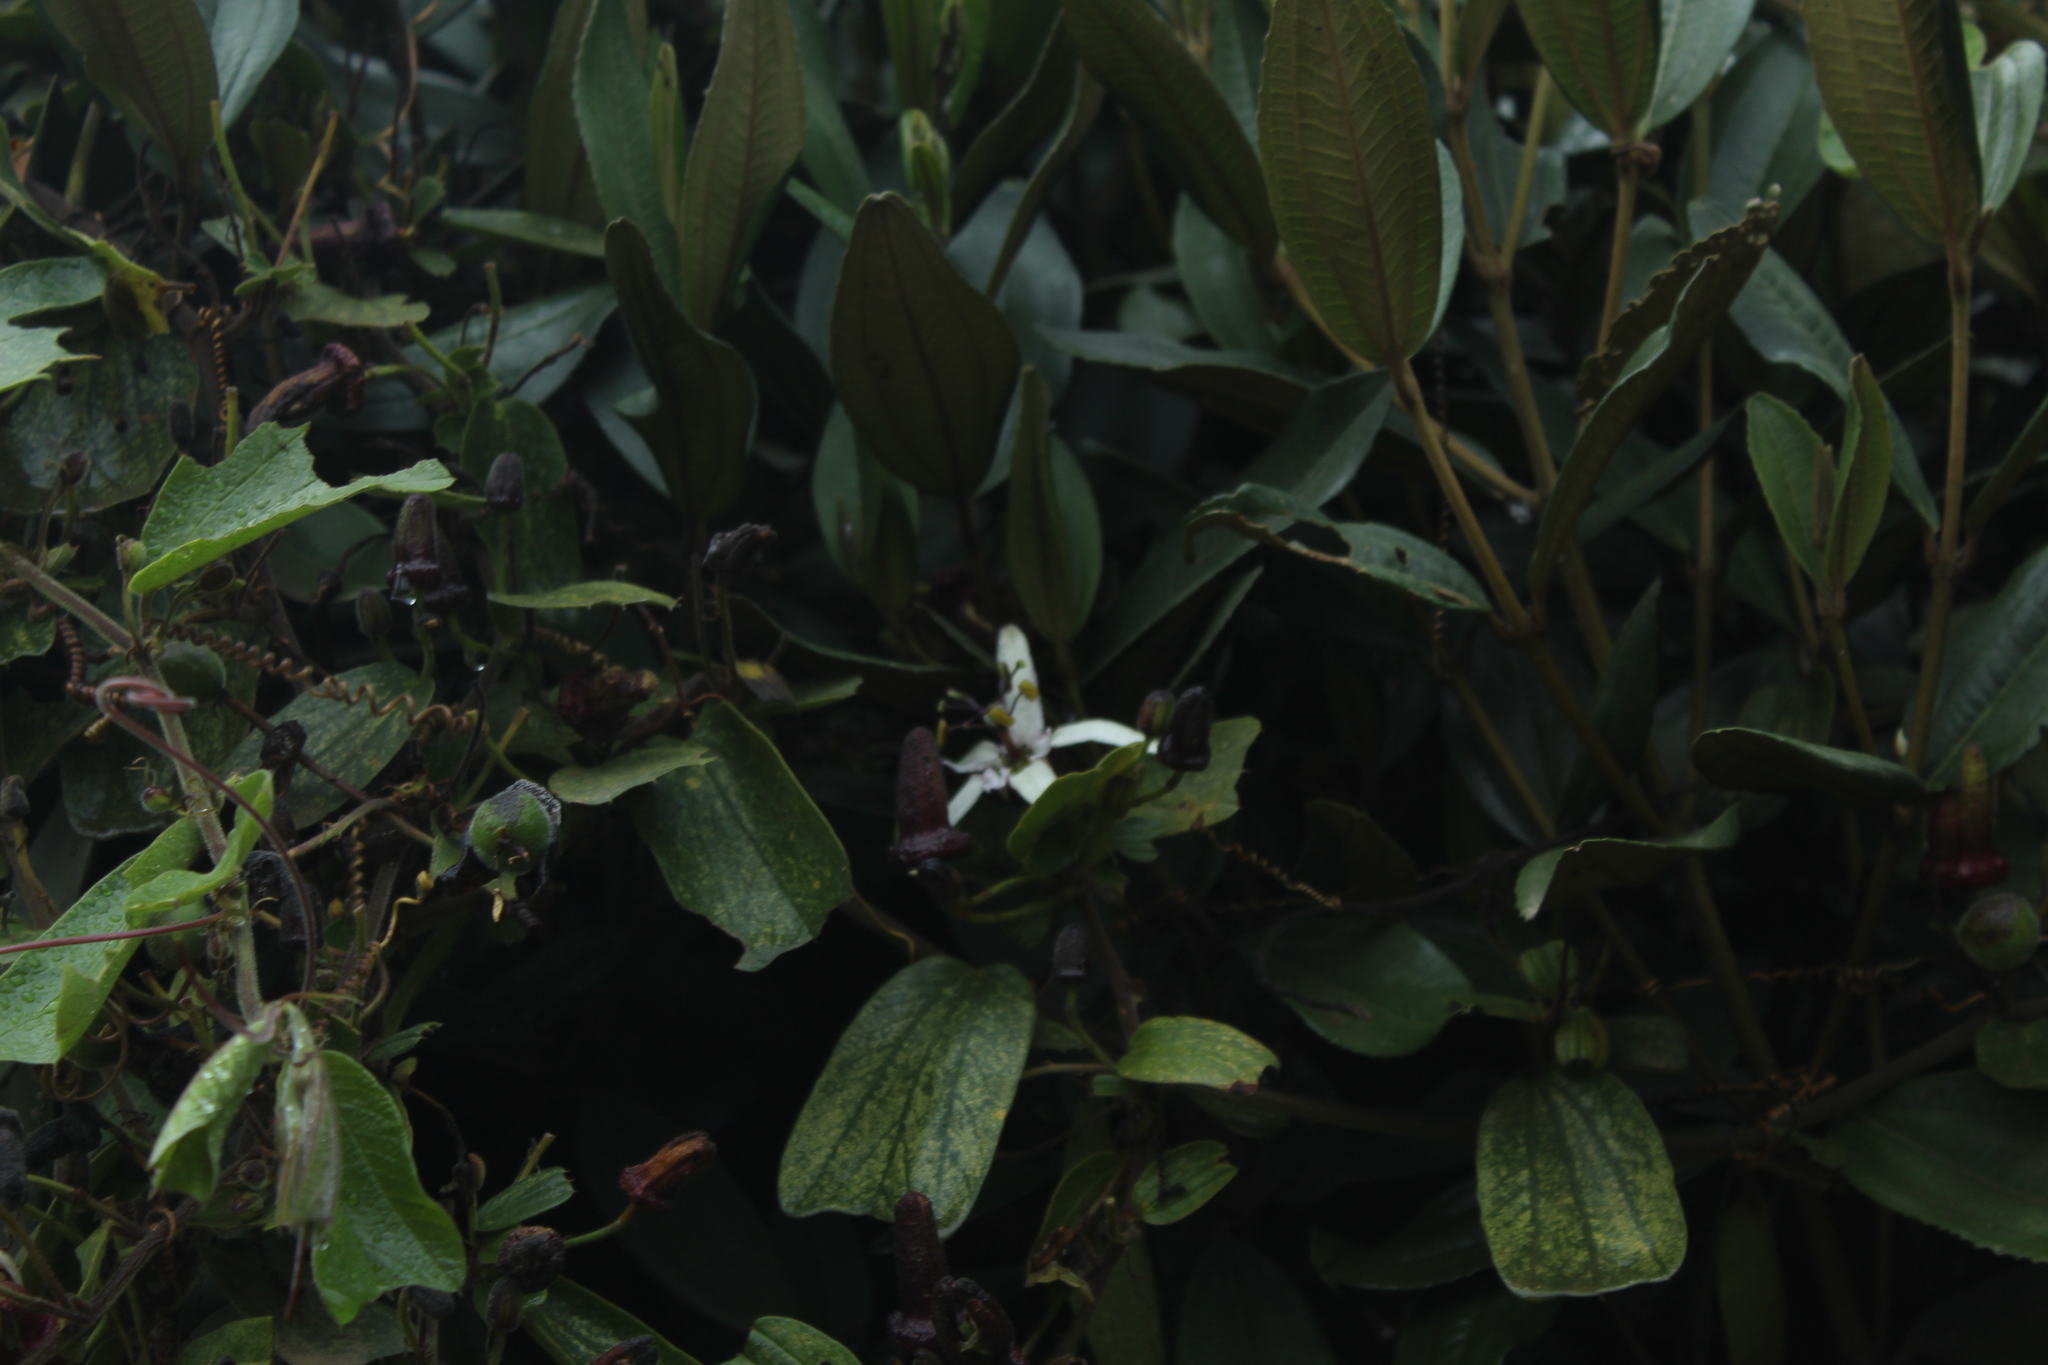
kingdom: Plantae
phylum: Tracheophyta
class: Magnoliopsida
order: Malpighiales
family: Passifloraceae
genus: Passiflora
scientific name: Passiflora bogotensis
